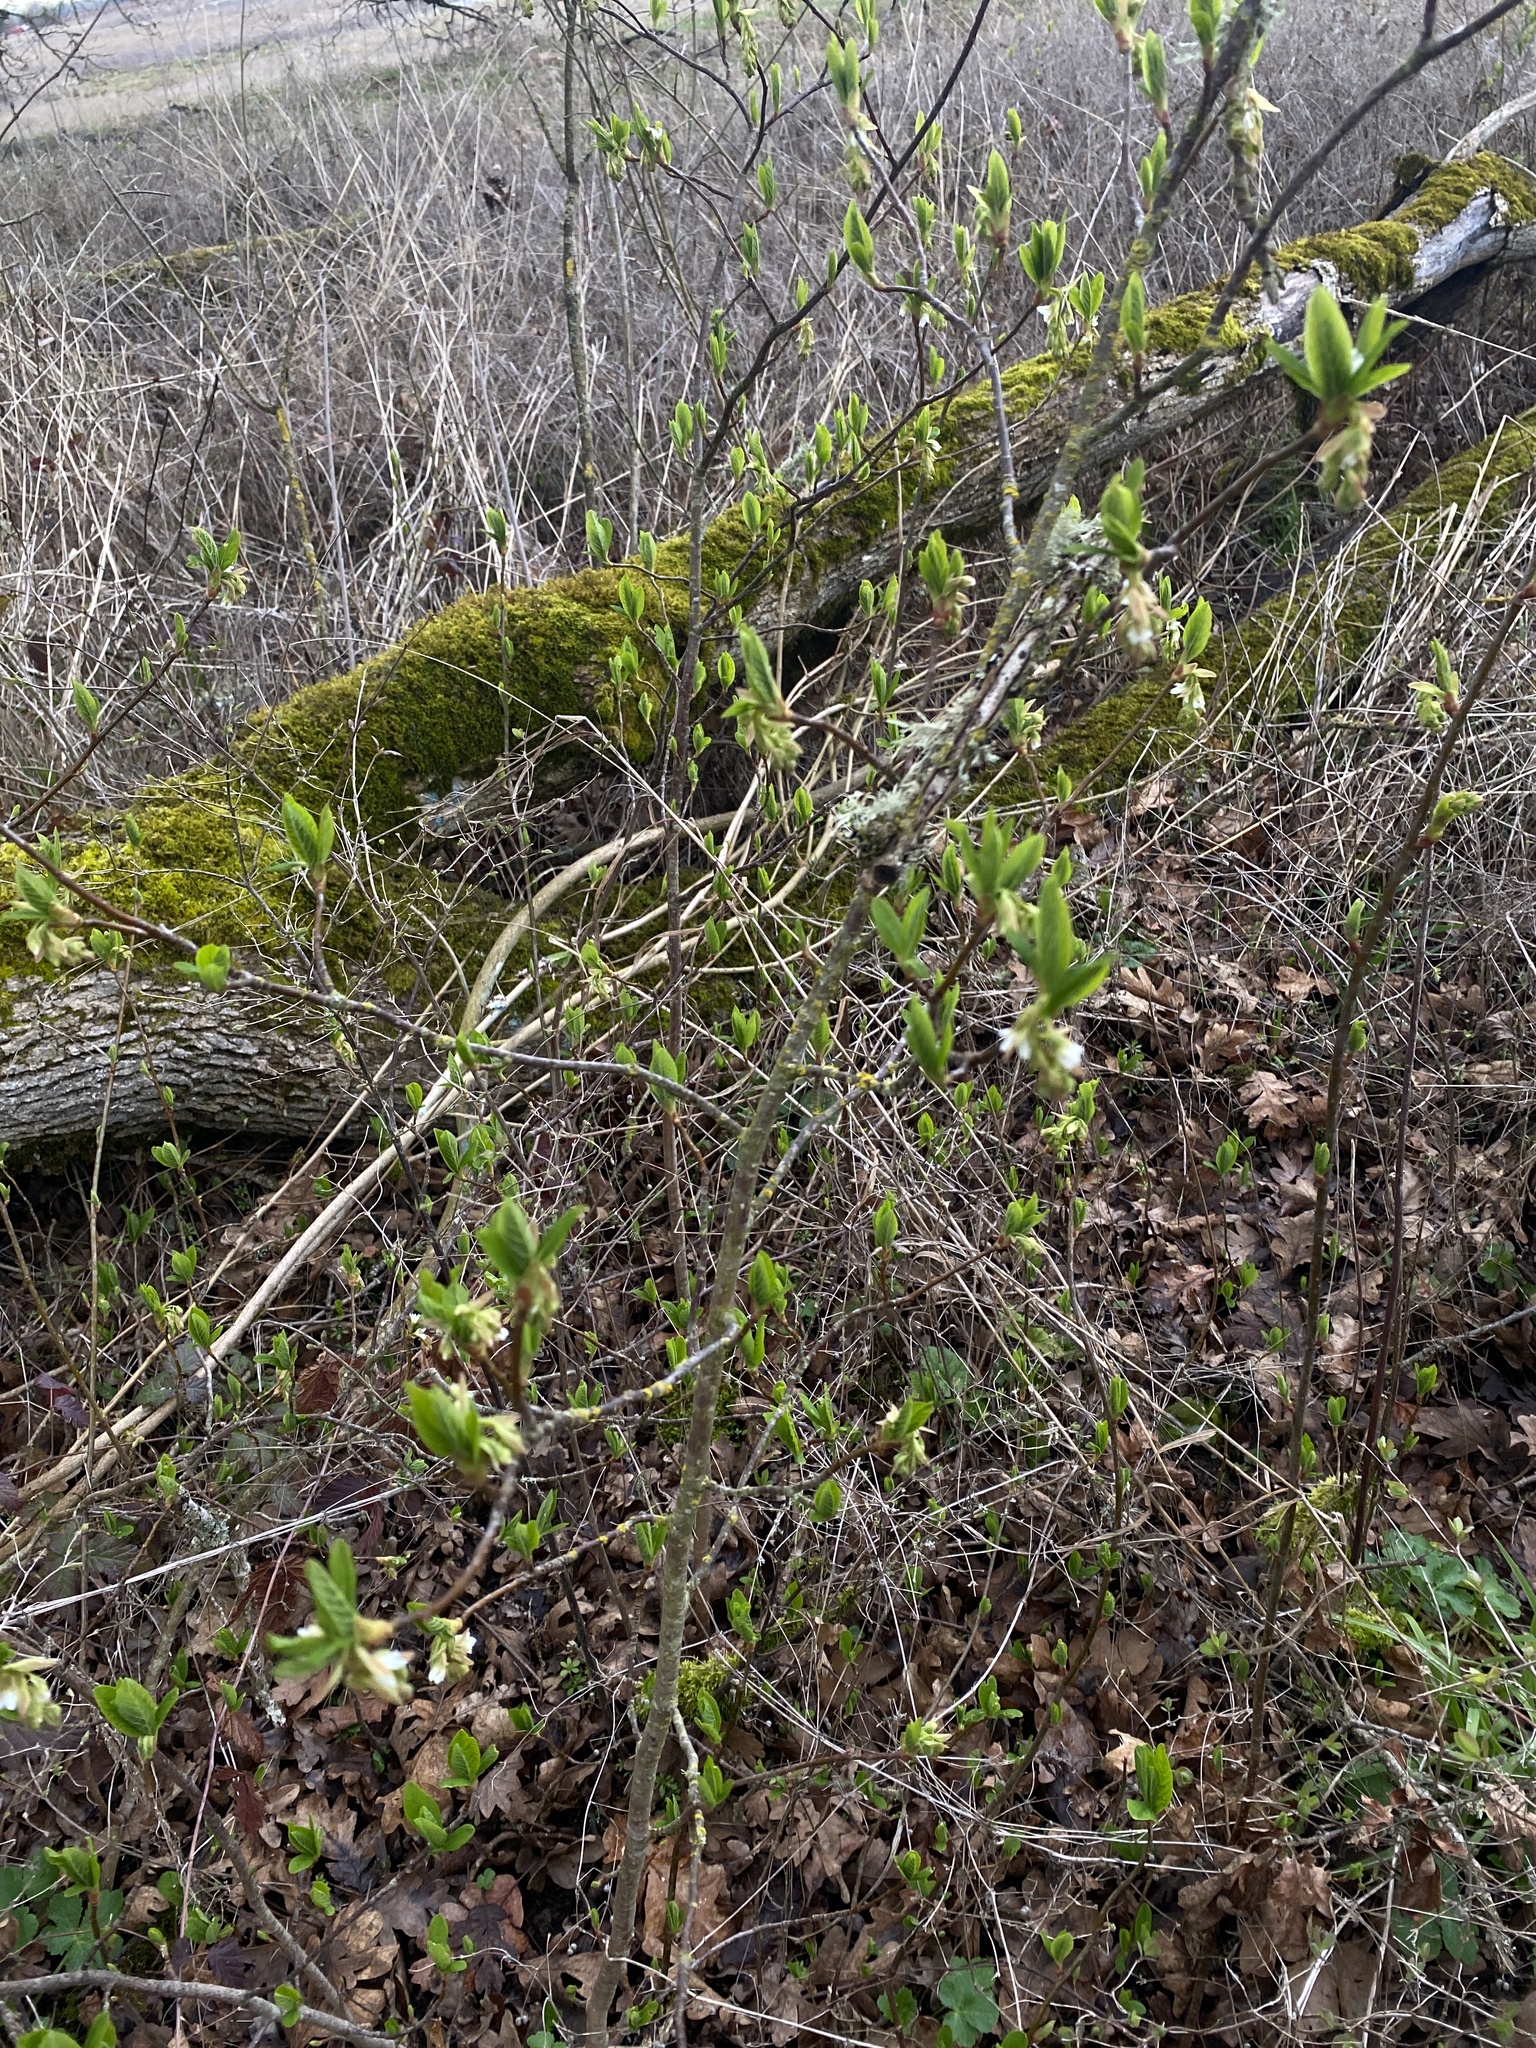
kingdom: Plantae
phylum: Tracheophyta
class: Magnoliopsida
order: Rosales
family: Rosaceae
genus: Oemleria
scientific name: Oemleria cerasiformis
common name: Osoberry
